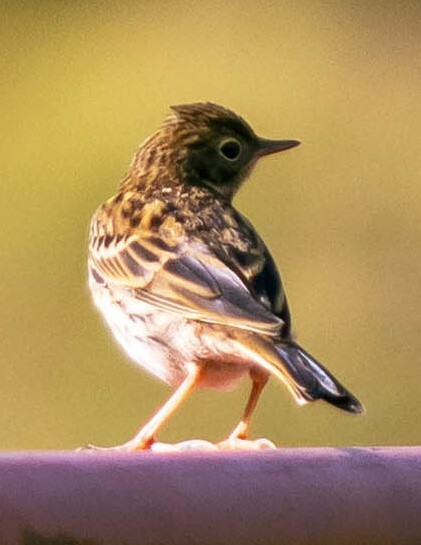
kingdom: Animalia
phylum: Chordata
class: Aves
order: Passeriformes
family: Motacillidae
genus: Anthus
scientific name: Anthus pratensis
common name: Meadow pipit
